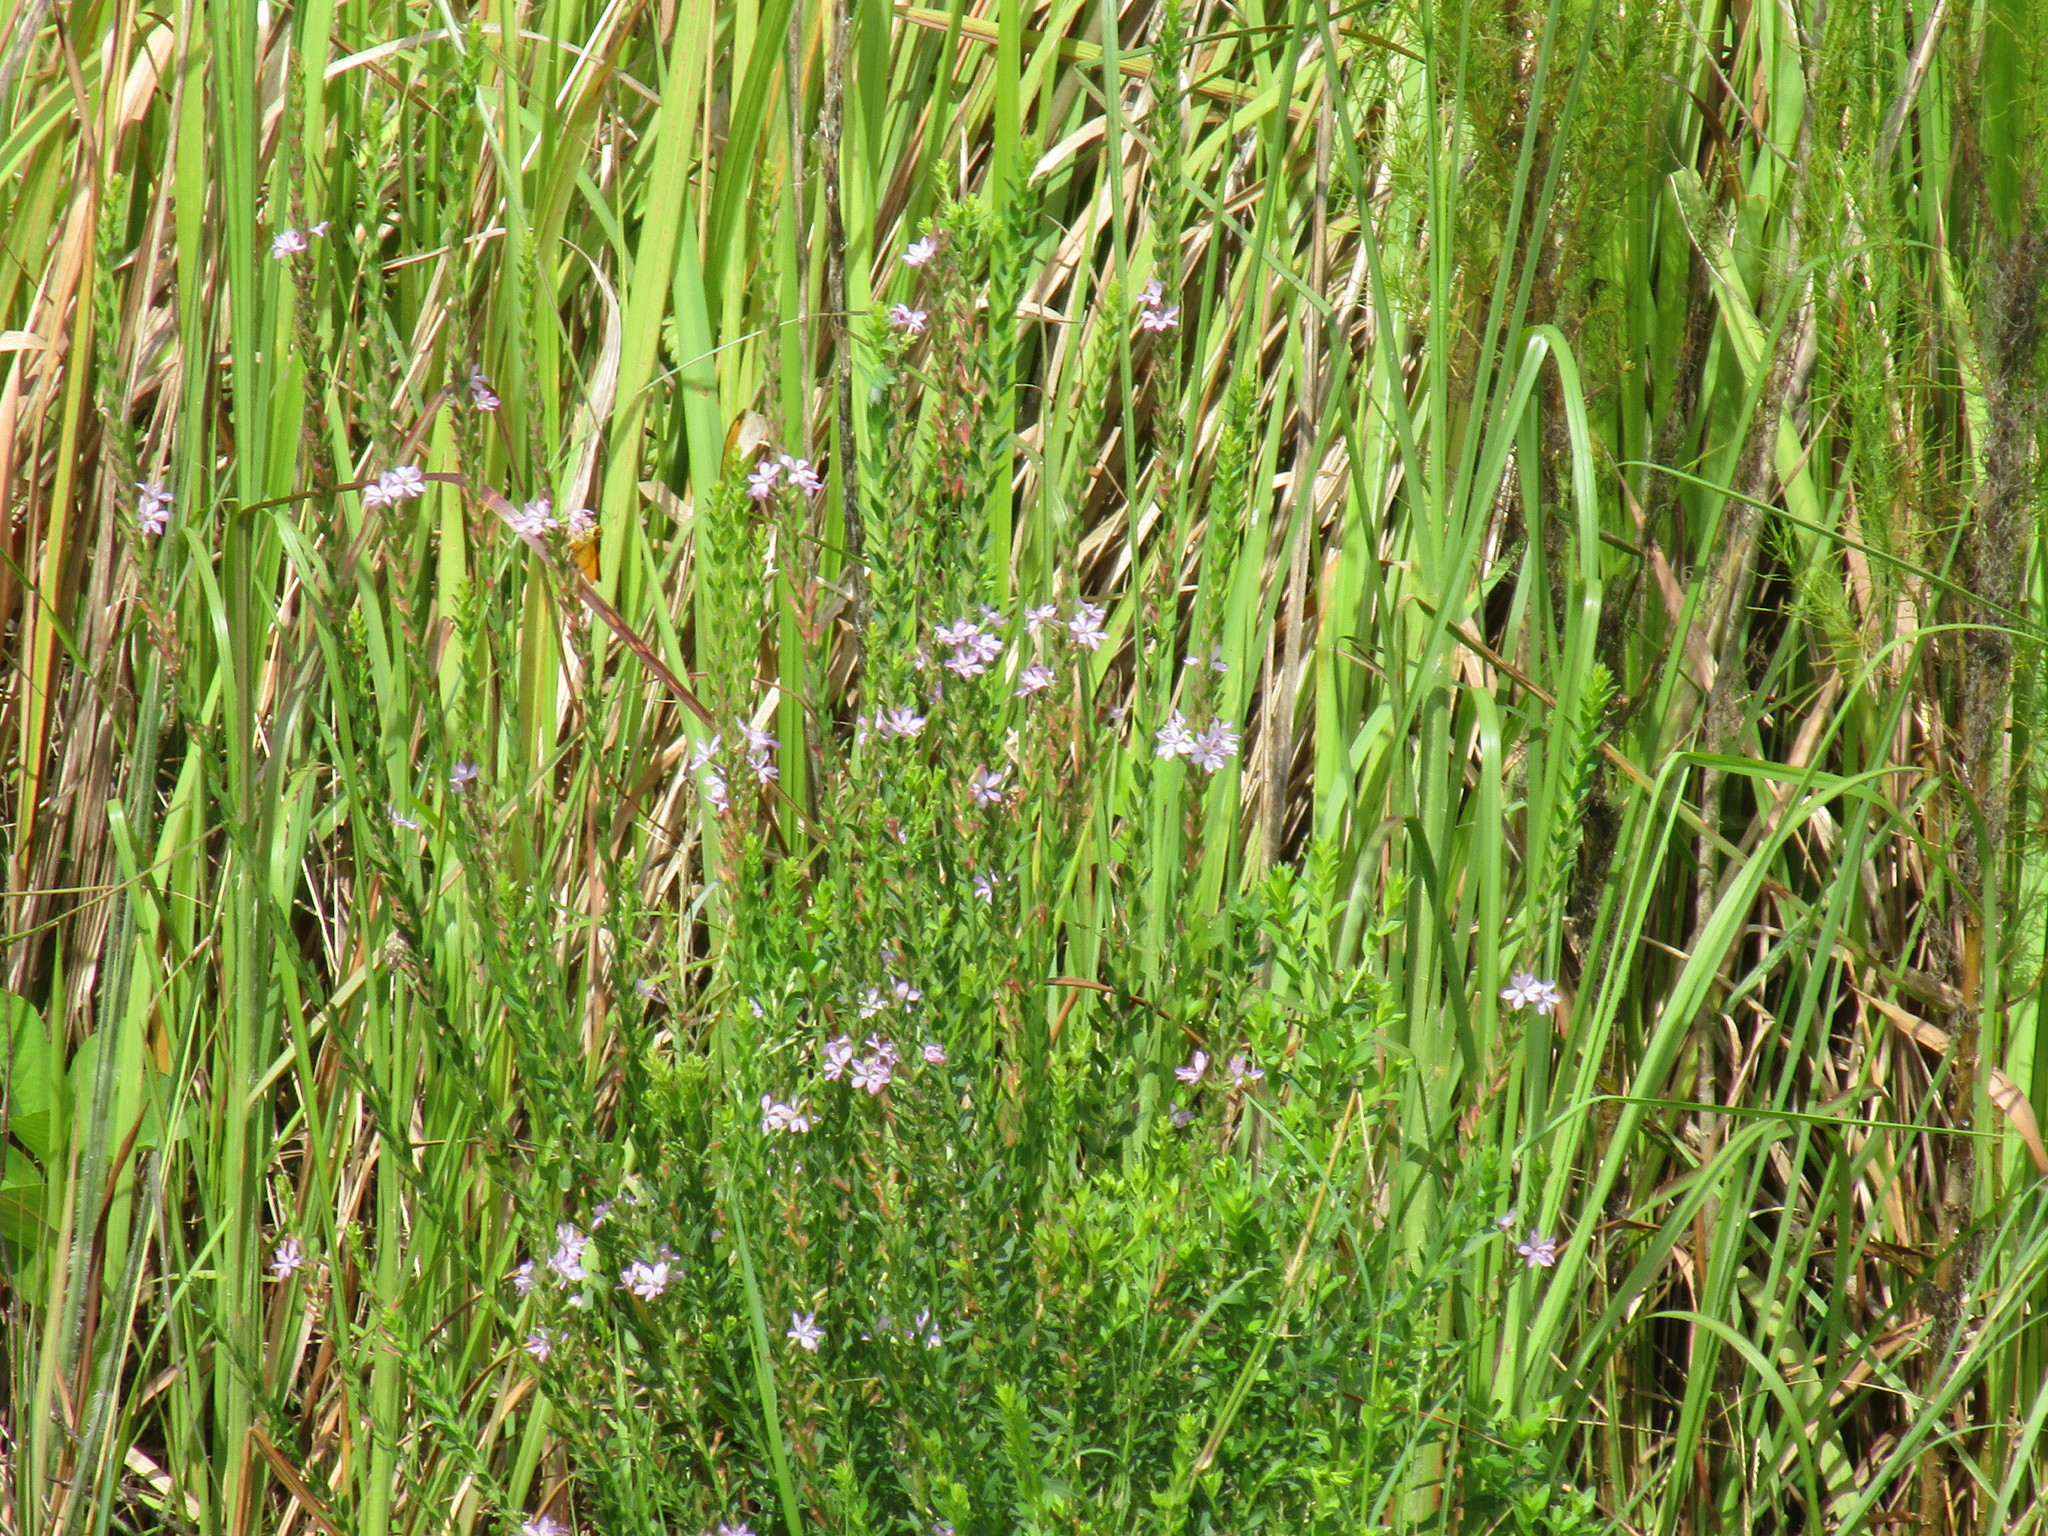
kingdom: Plantae
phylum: Tracheophyta
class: Magnoliopsida
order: Myrtales
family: Lythraceae
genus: Lythrum
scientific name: Lythrum alatum
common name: Winged loosestrife
